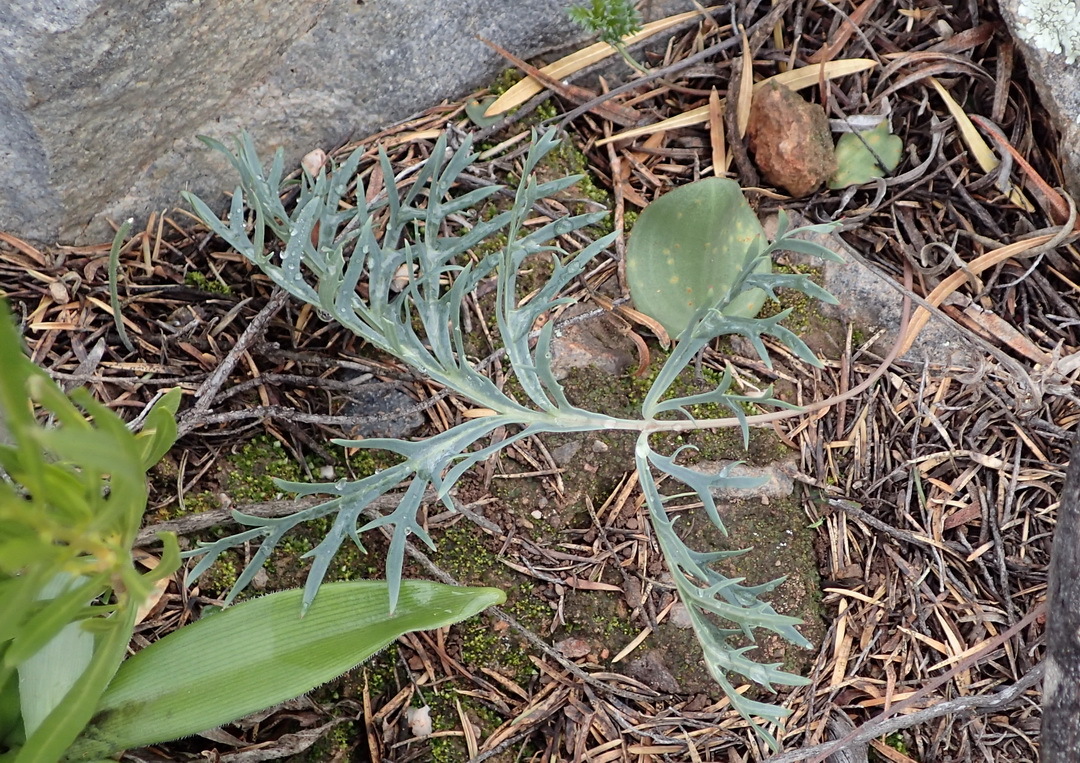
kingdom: Plantae
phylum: Tracheophyta
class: Magnoliopsida
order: Geraniales
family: Geraniaceae
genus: Pelargonium
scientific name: Pelargonium pillansii
